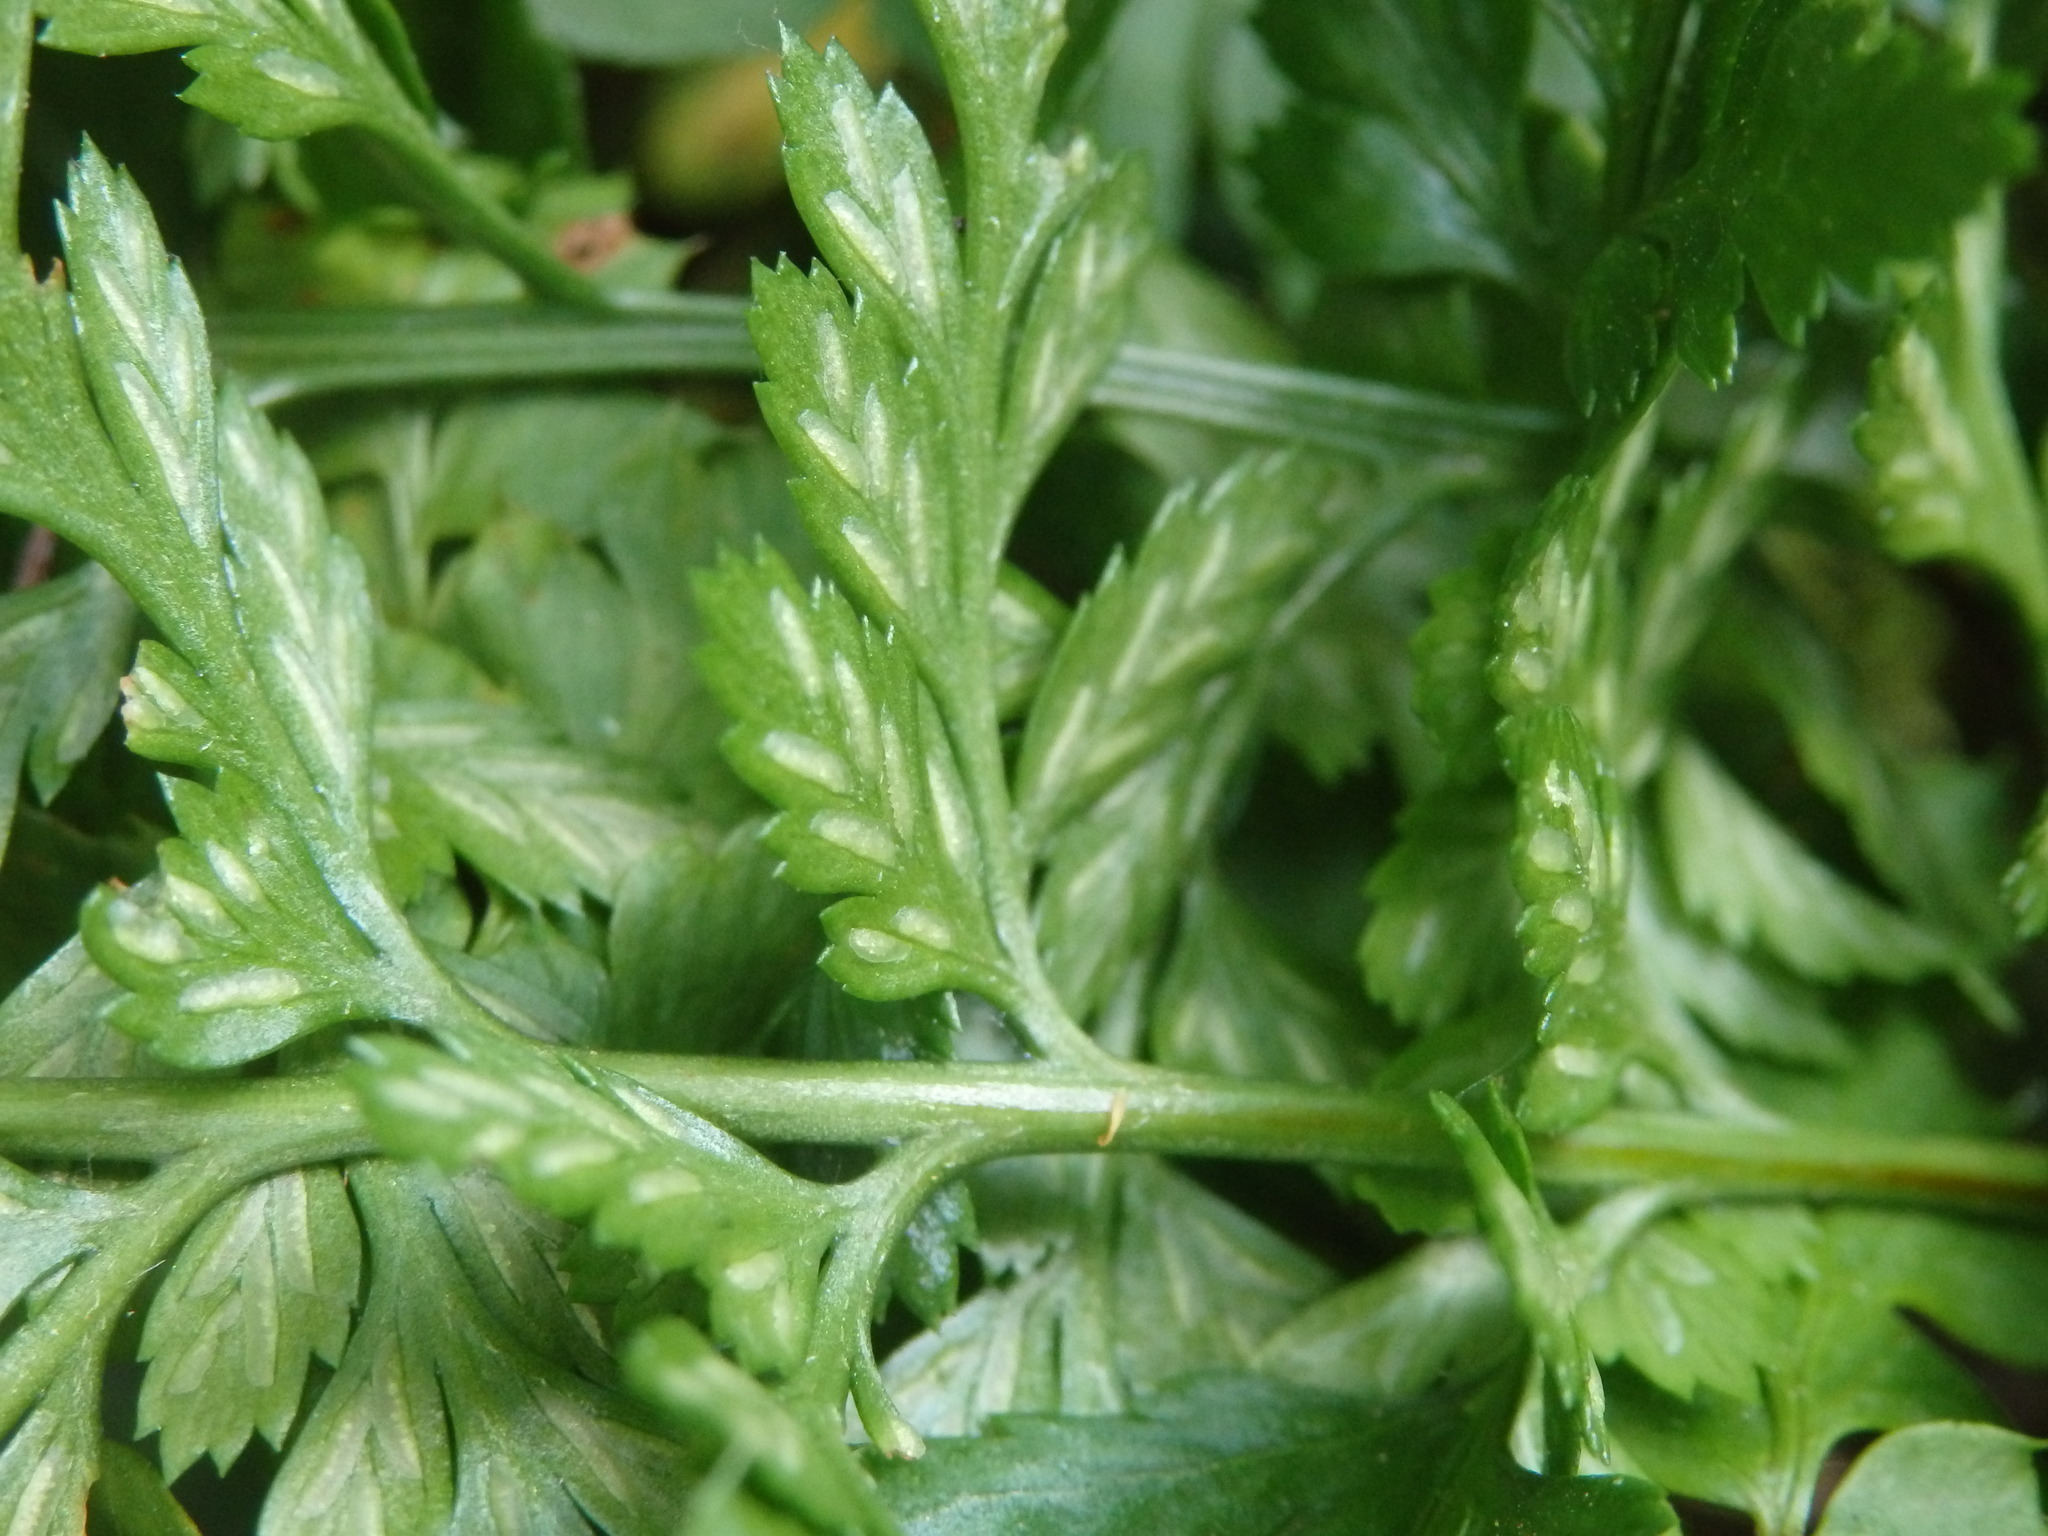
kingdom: Plantae
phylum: Tracheophyta
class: Polypodiopsida
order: Polypodiales
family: Aspleniaceae
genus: Asplenium
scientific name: Asplenium onopteris
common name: Irish spleenwort
